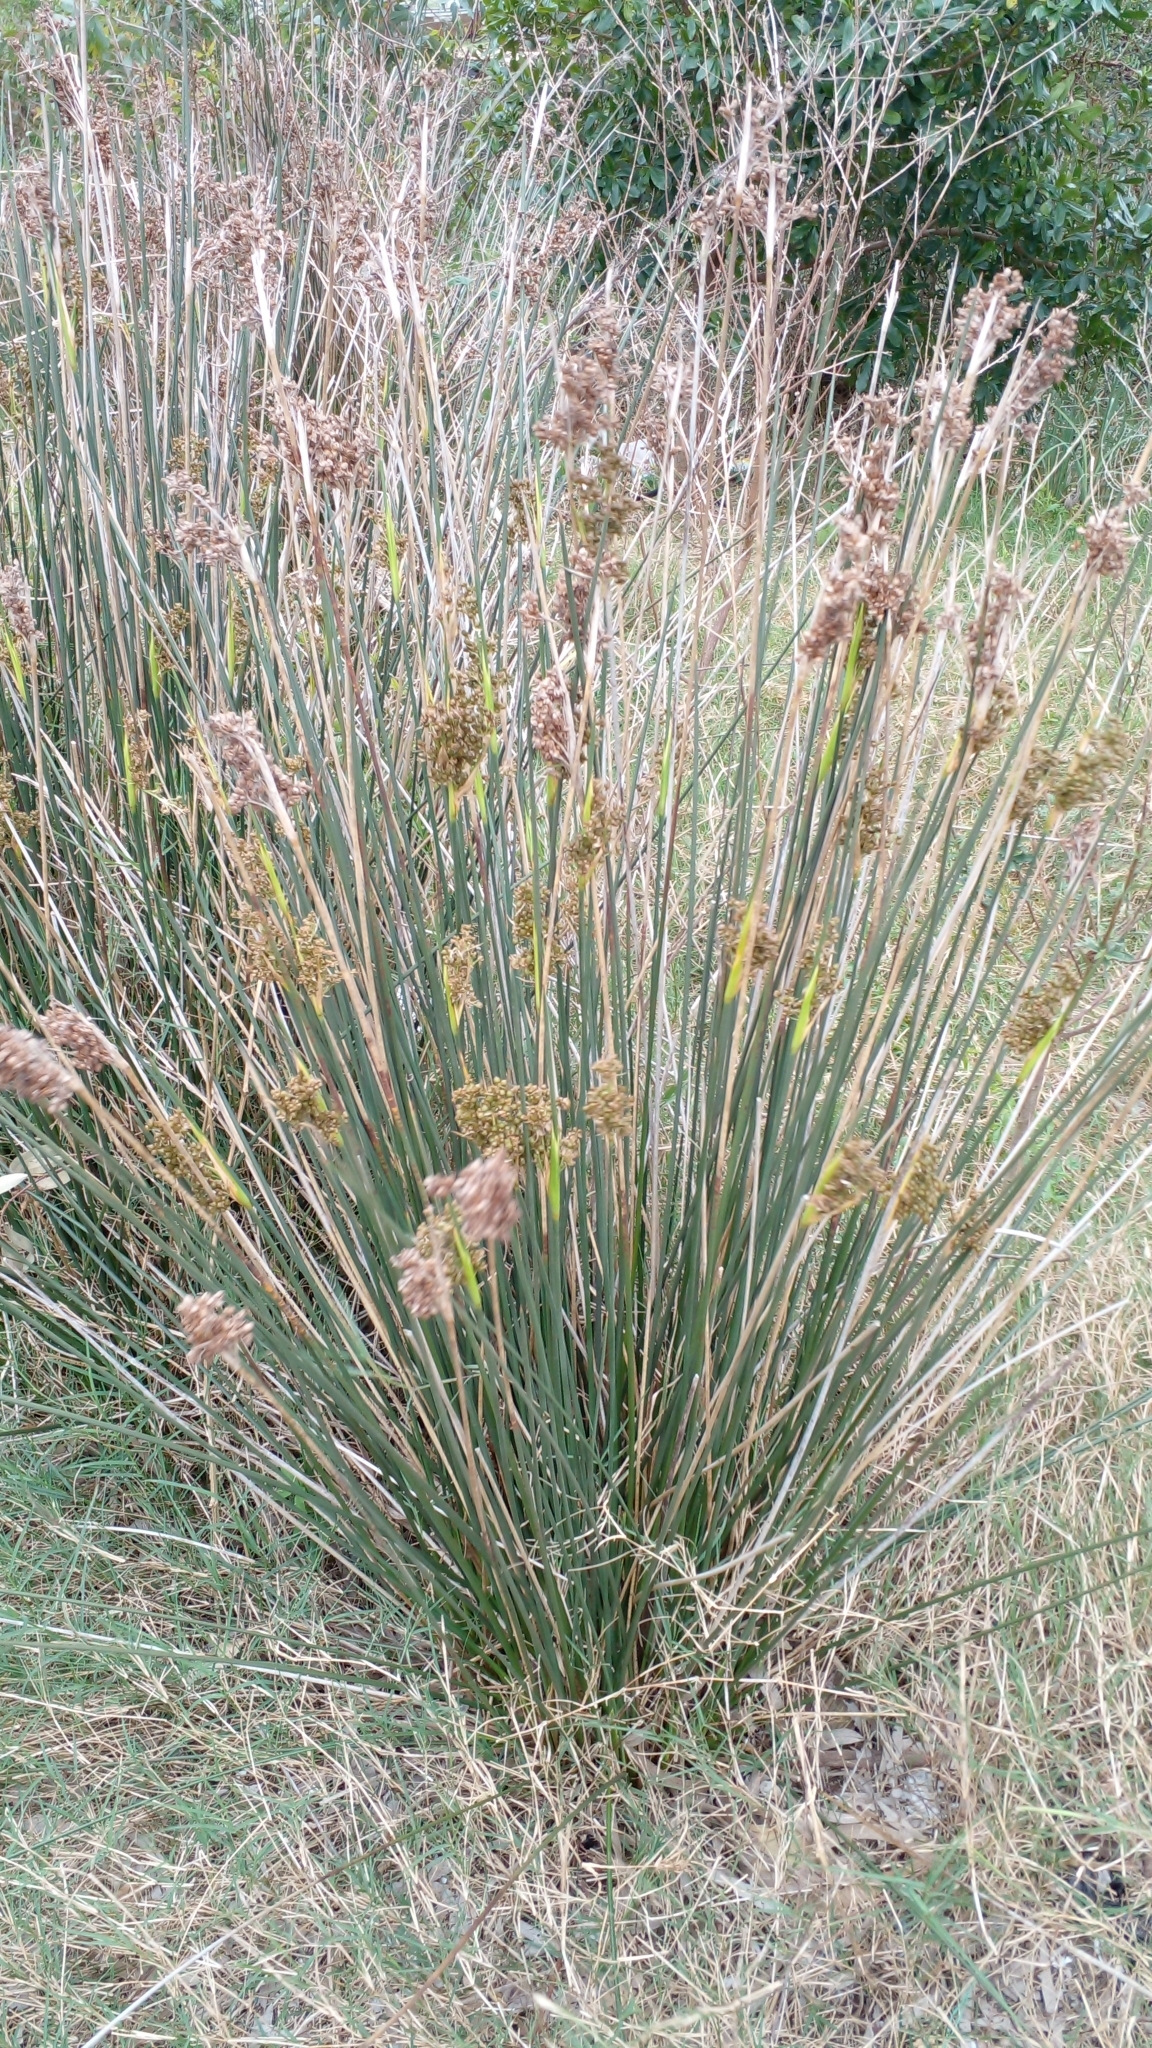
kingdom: Plantae
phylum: Tracheophyta
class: Liliopsida
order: Poales
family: Juncaceae
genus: Juncus
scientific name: Juncus acutus
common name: Sharp rush
